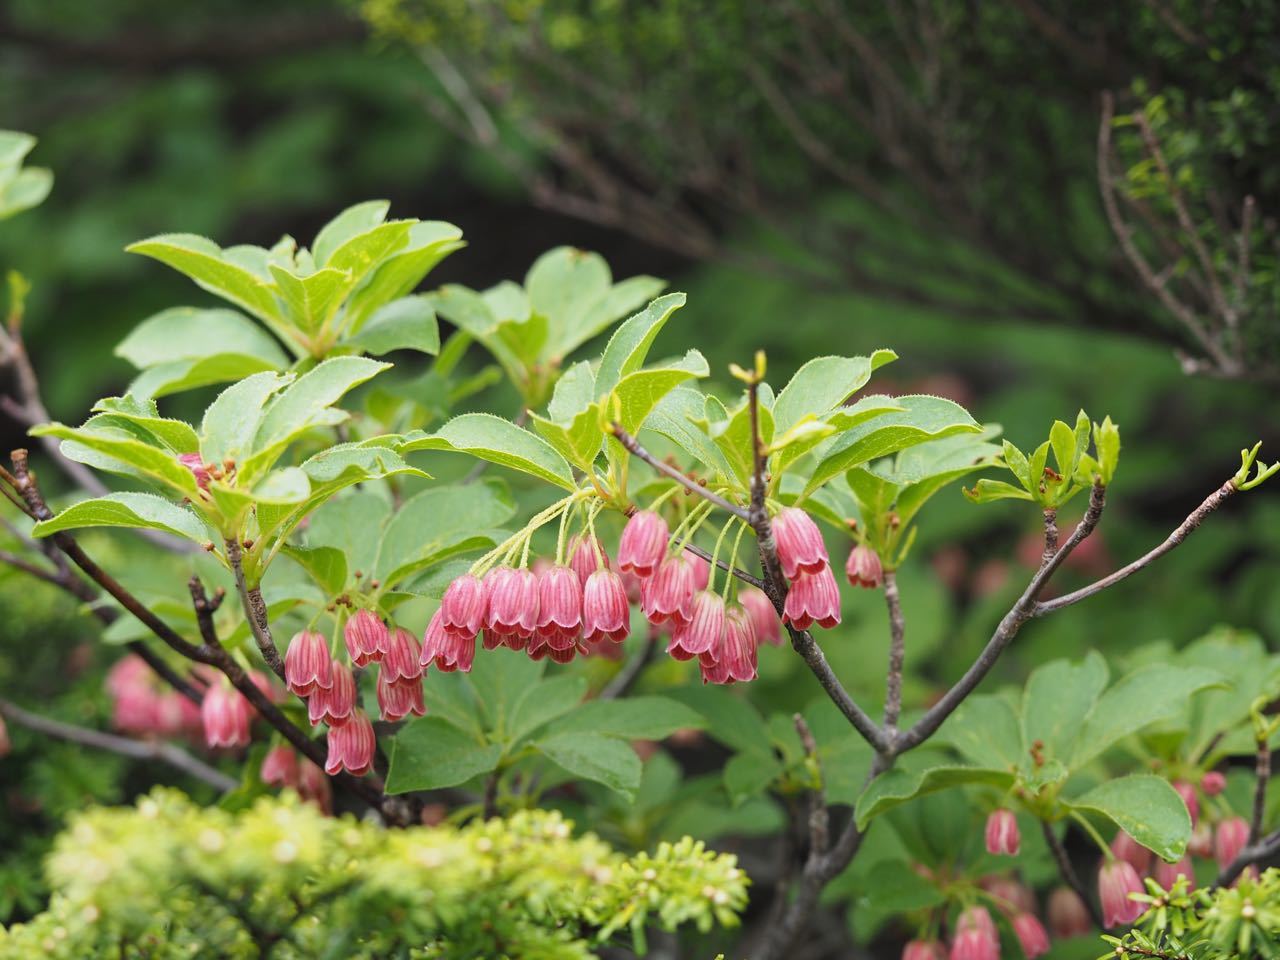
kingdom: Plantae
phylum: Tracheophyta
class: Magnoliopsida
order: Ericales
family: Ericaceae
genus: Enkianthus
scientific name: Enkianthus campanulatus
